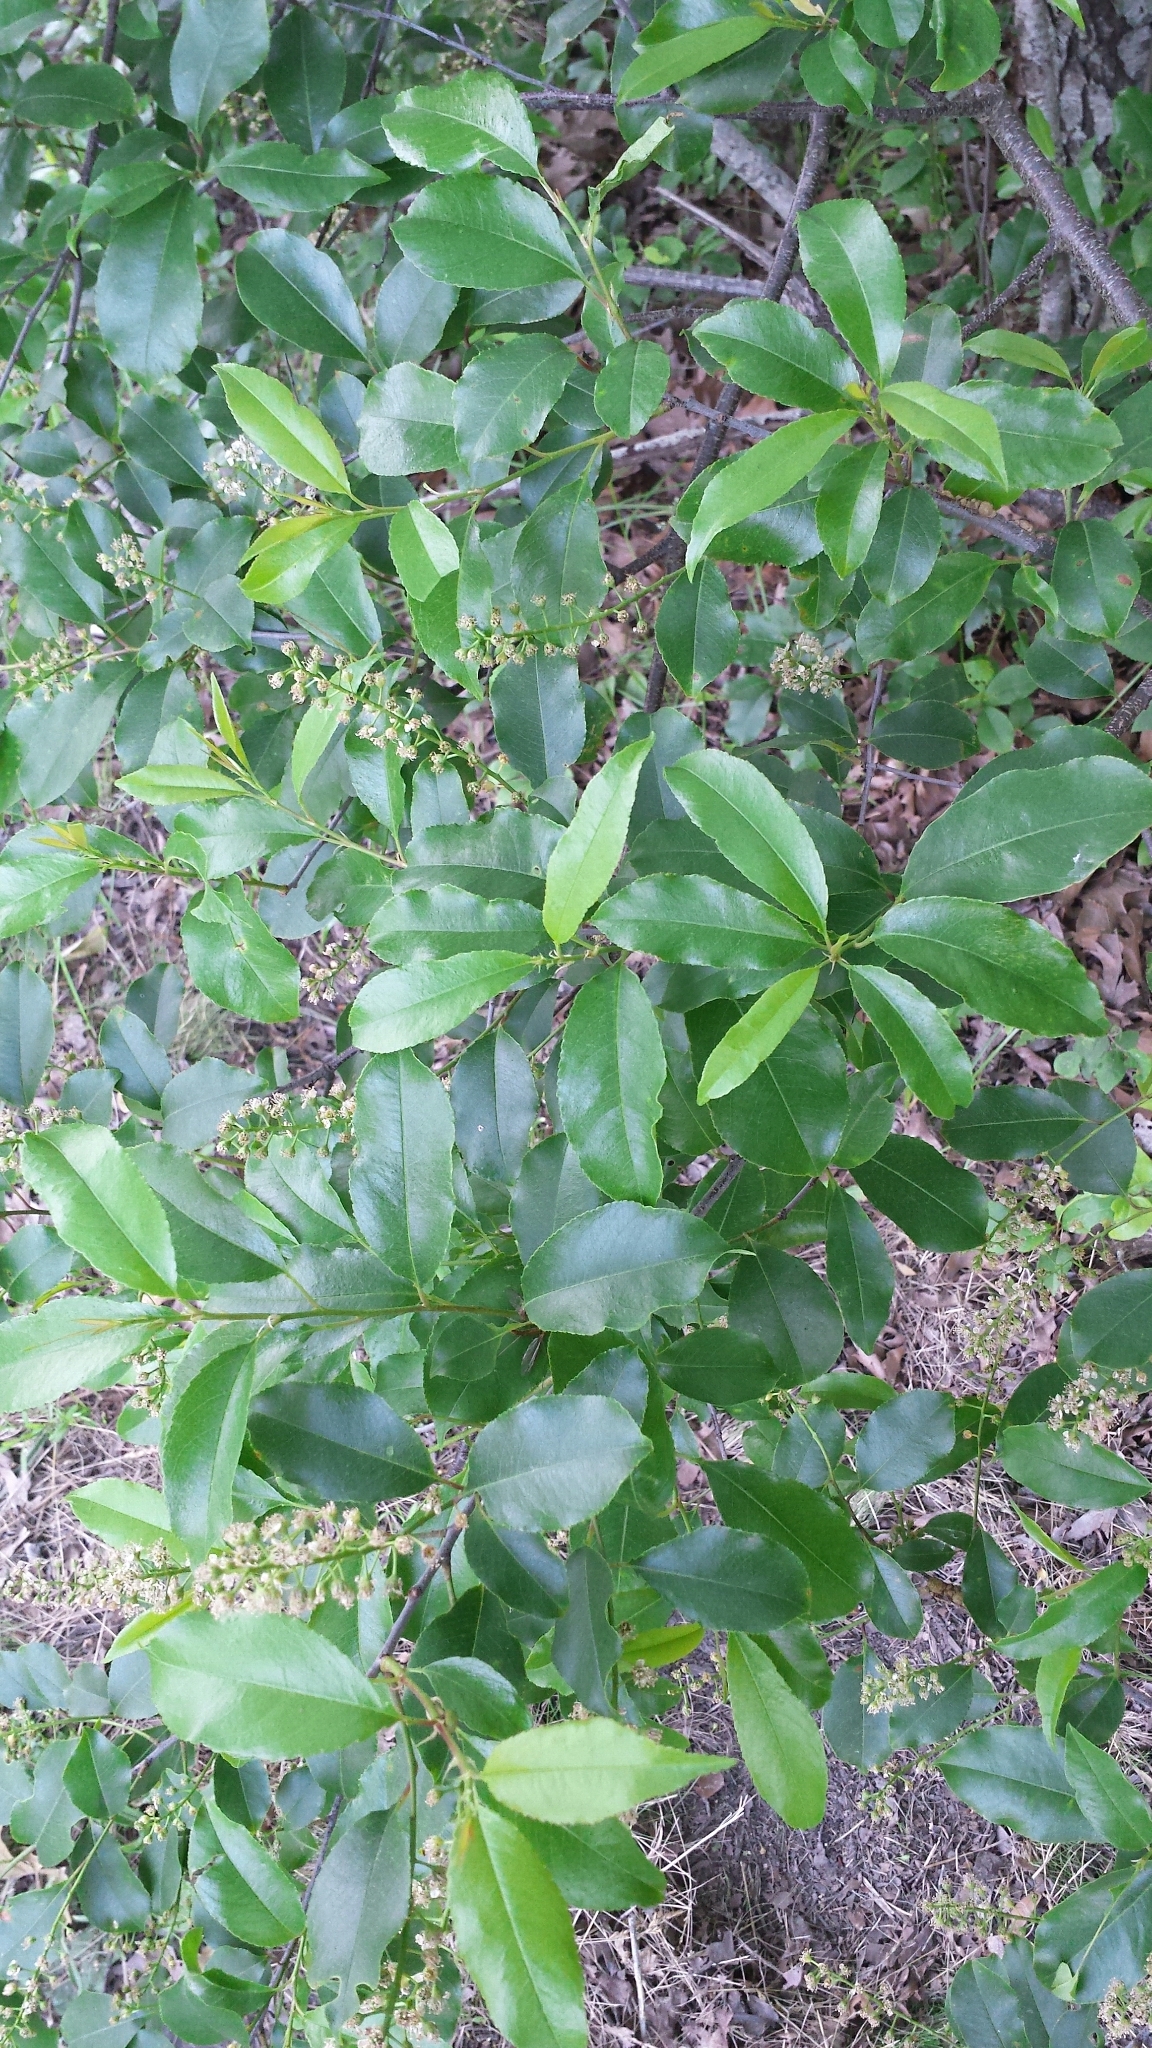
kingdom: Plantae
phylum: Tracheophyta
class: Magnoliopsida
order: Rosales
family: Rosaceae
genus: Prunus
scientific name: Prunus serotina
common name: Black cherry
